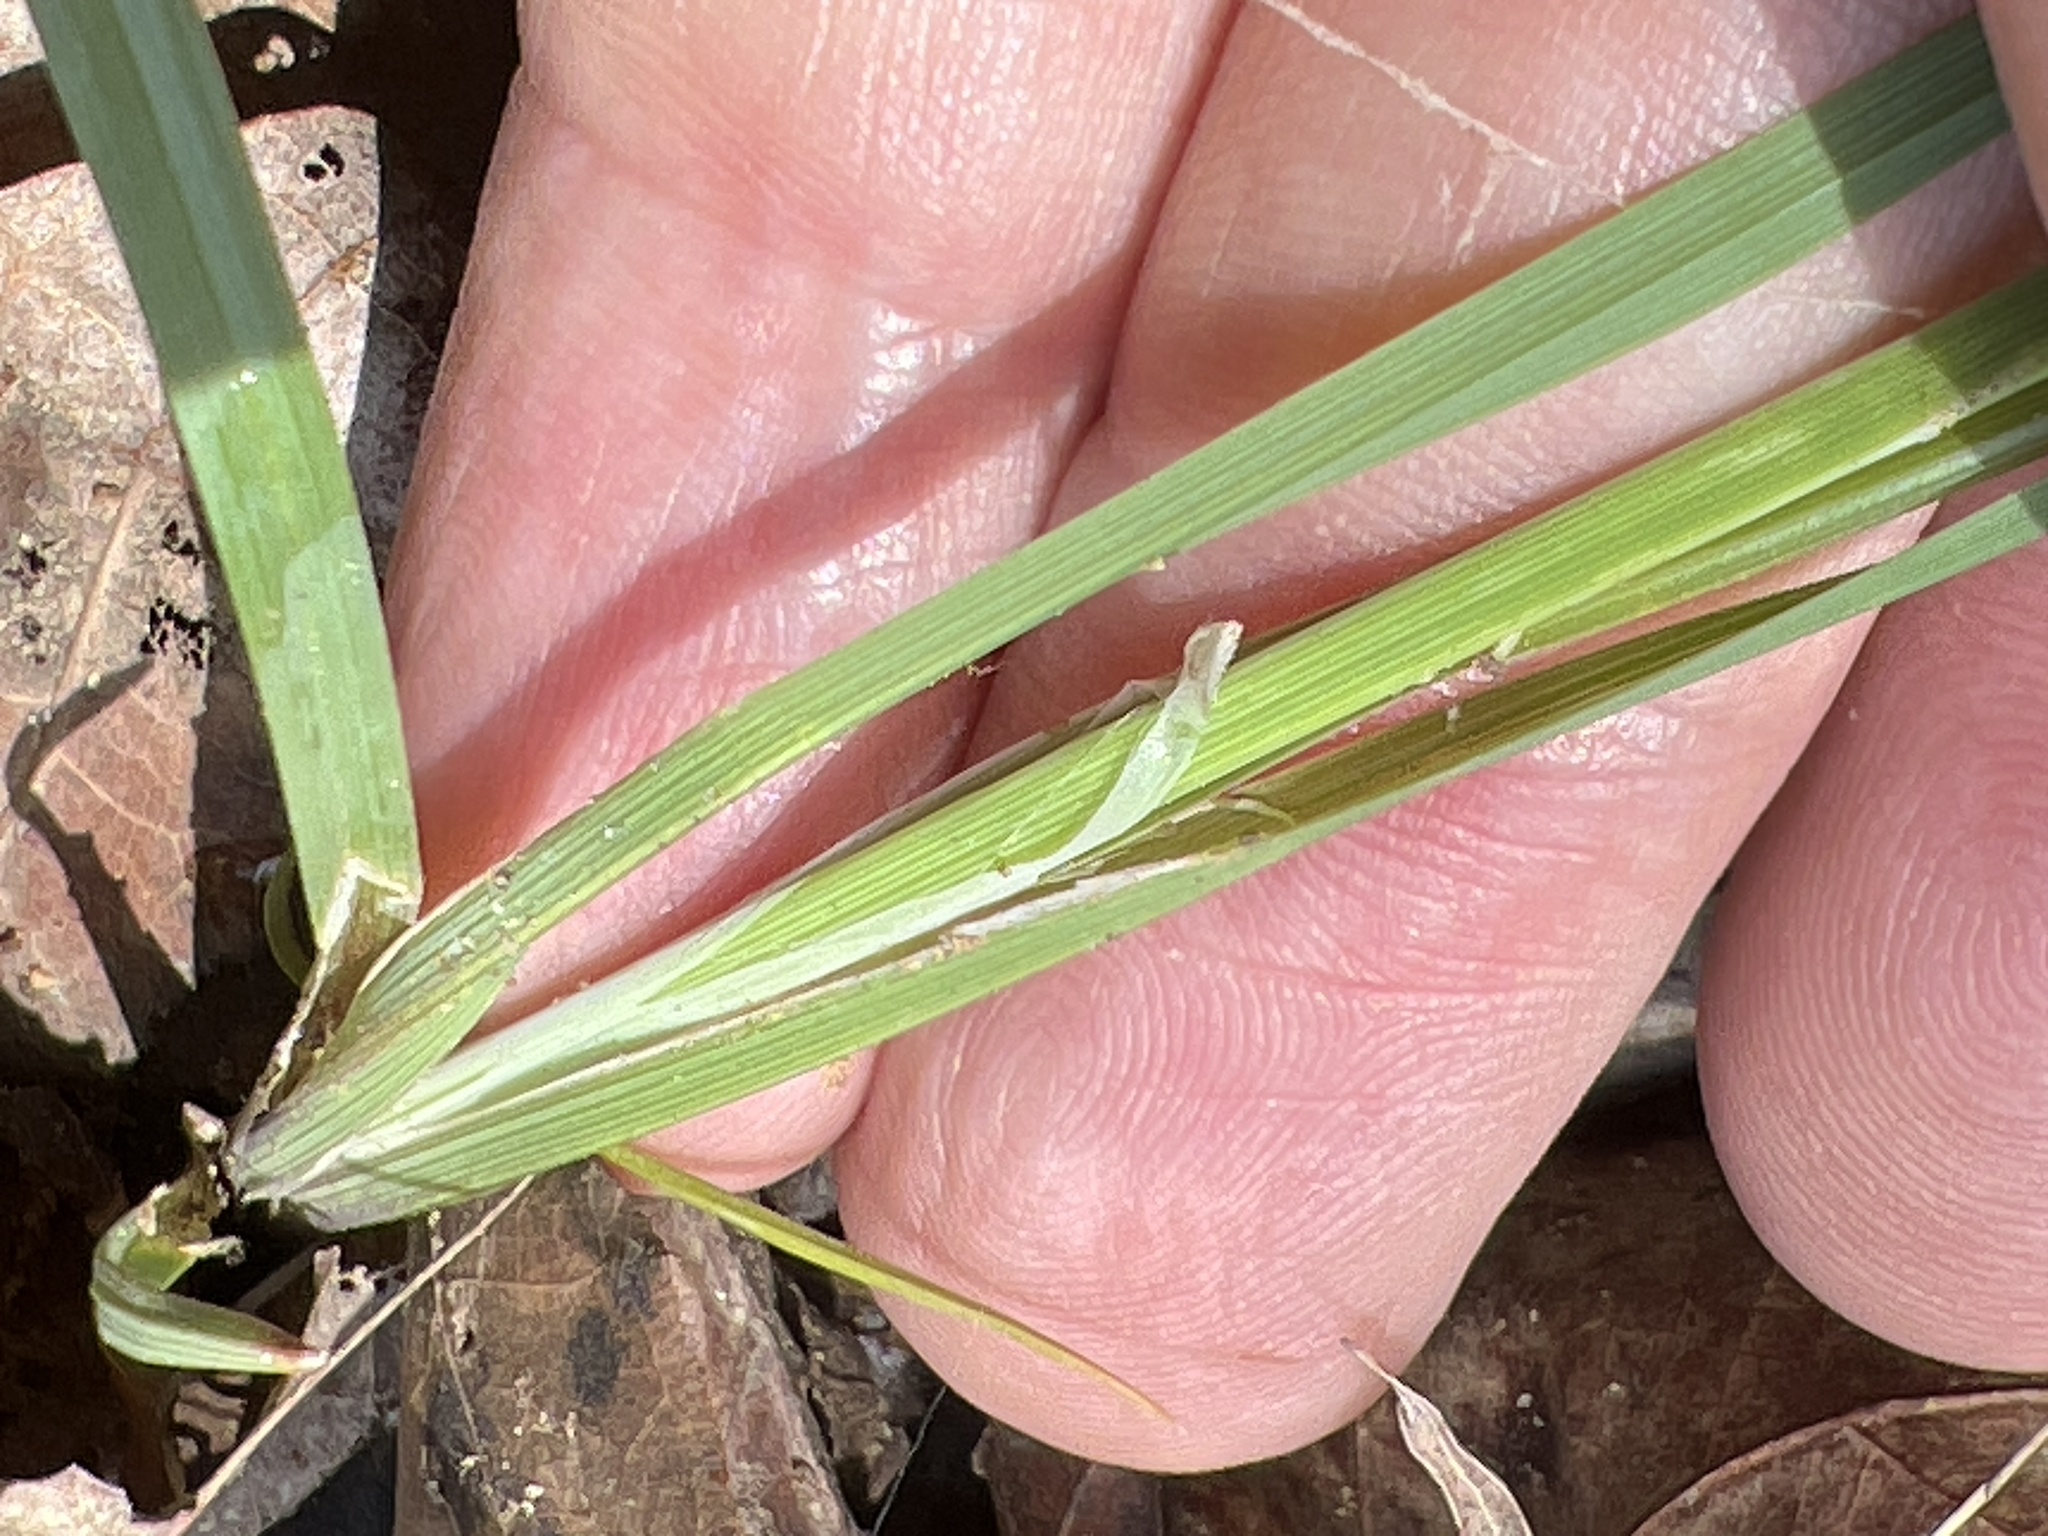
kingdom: Plantae
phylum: Tracheophyta
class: Liliopsida
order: Poales
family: Cyperaceae
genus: Carex
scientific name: Carex meadii
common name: Mead's sedge
